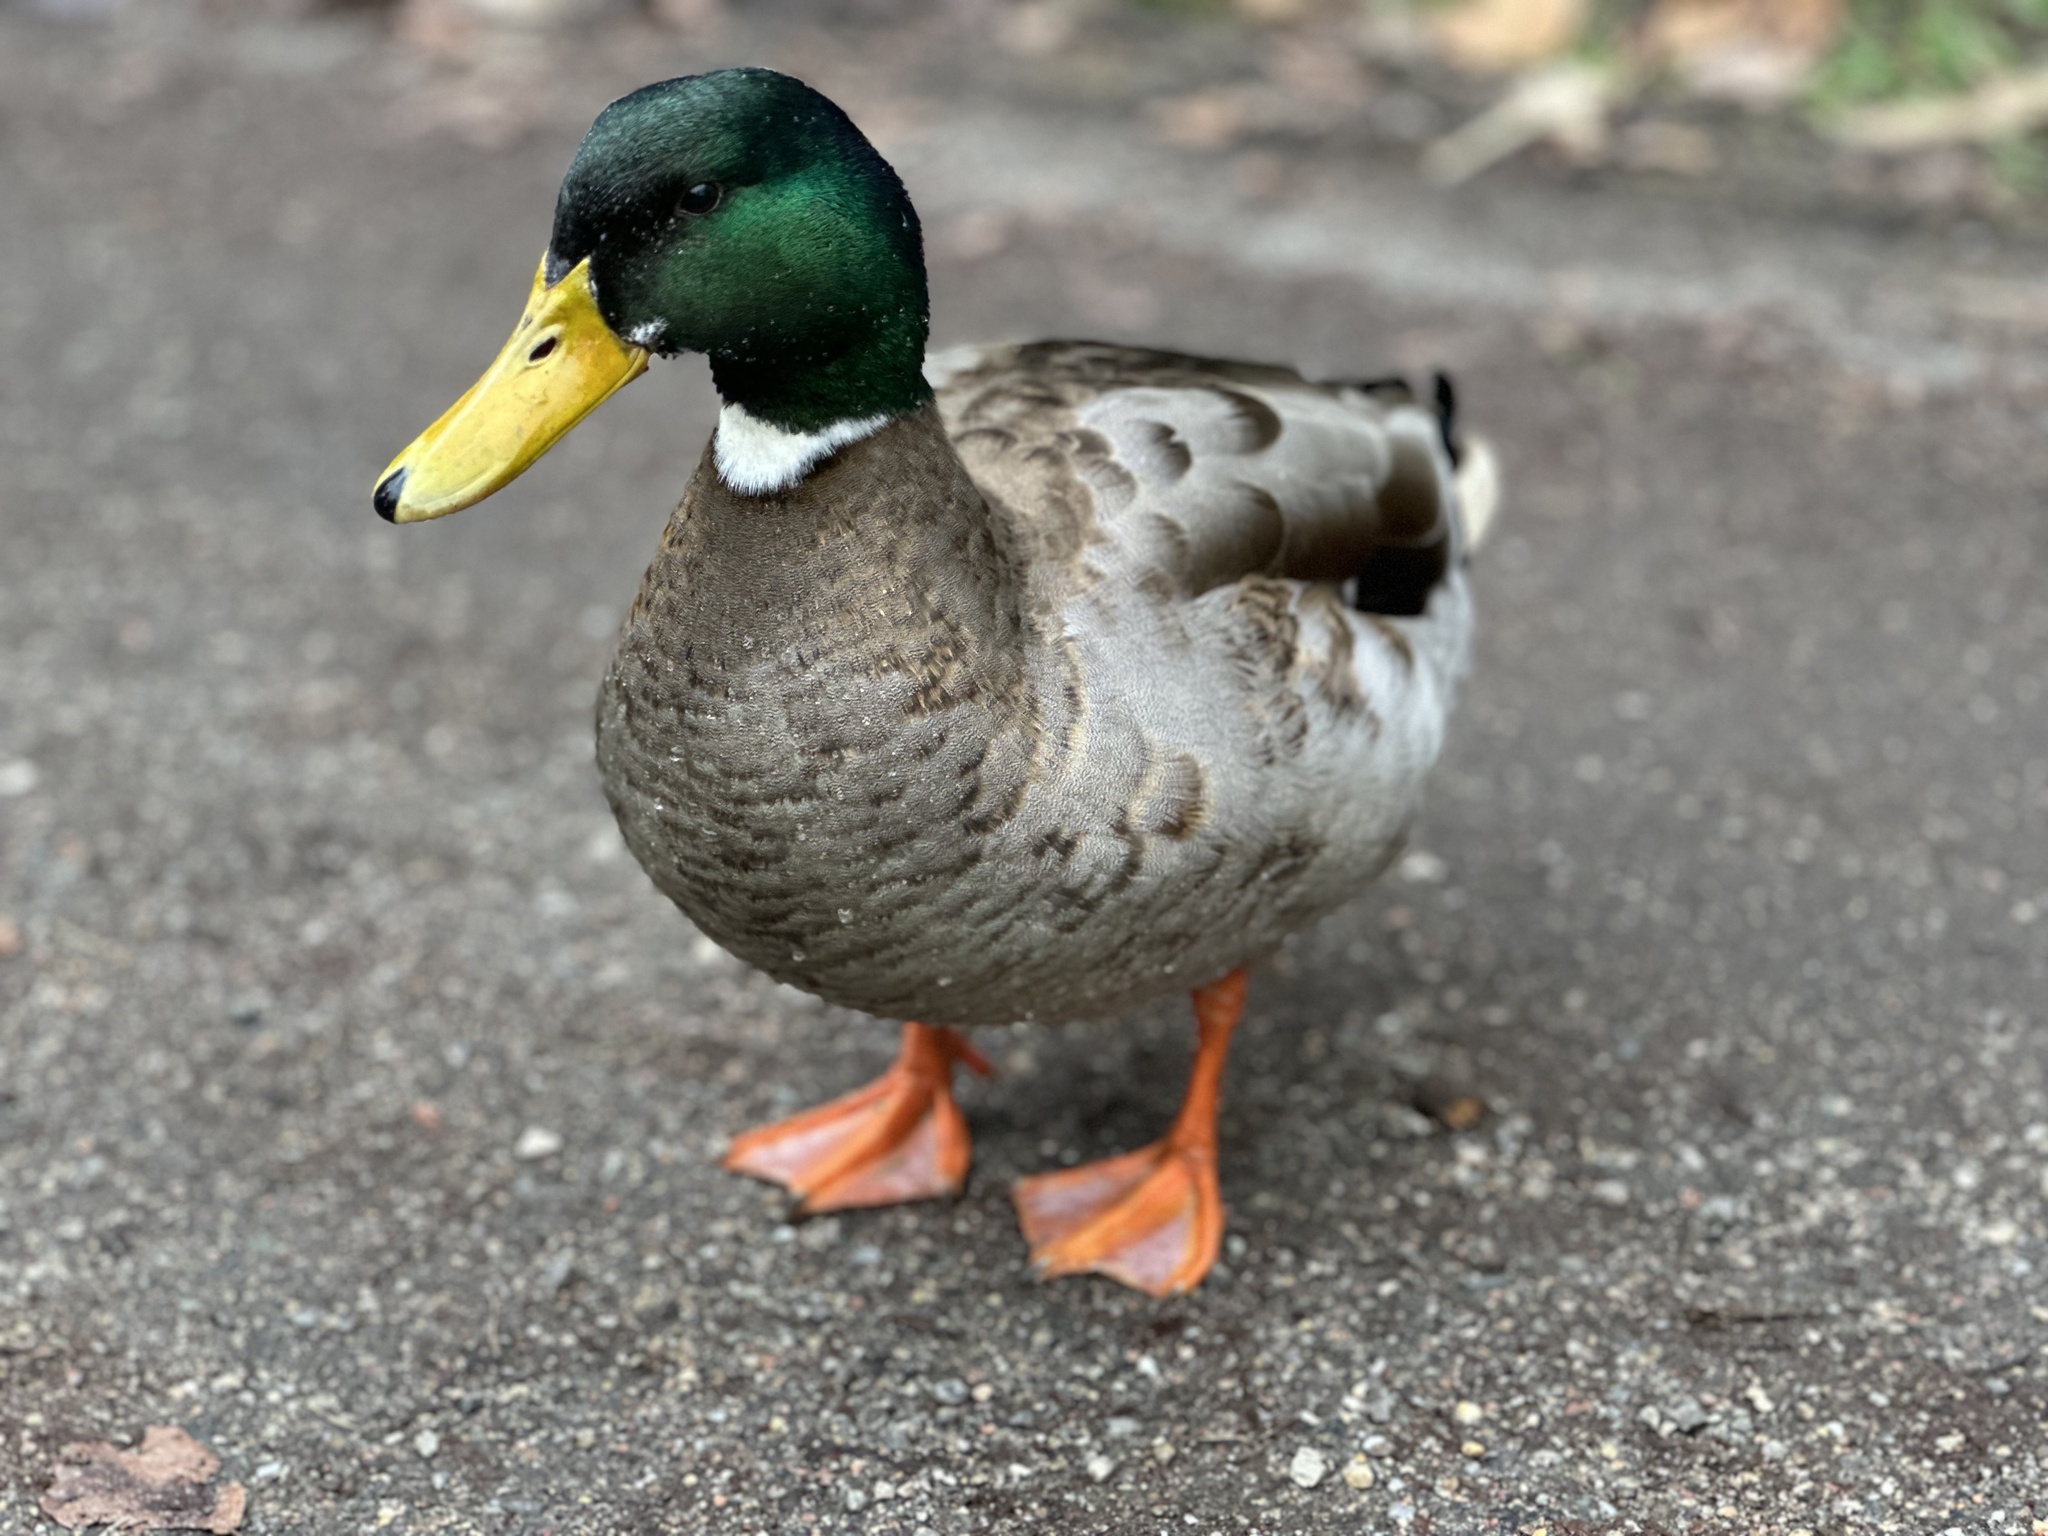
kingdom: Animalia
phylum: Chordata
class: Aves
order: Anseriformes
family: Anatidae
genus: Anas
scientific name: Anas platyrhynchos
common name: Mallard
